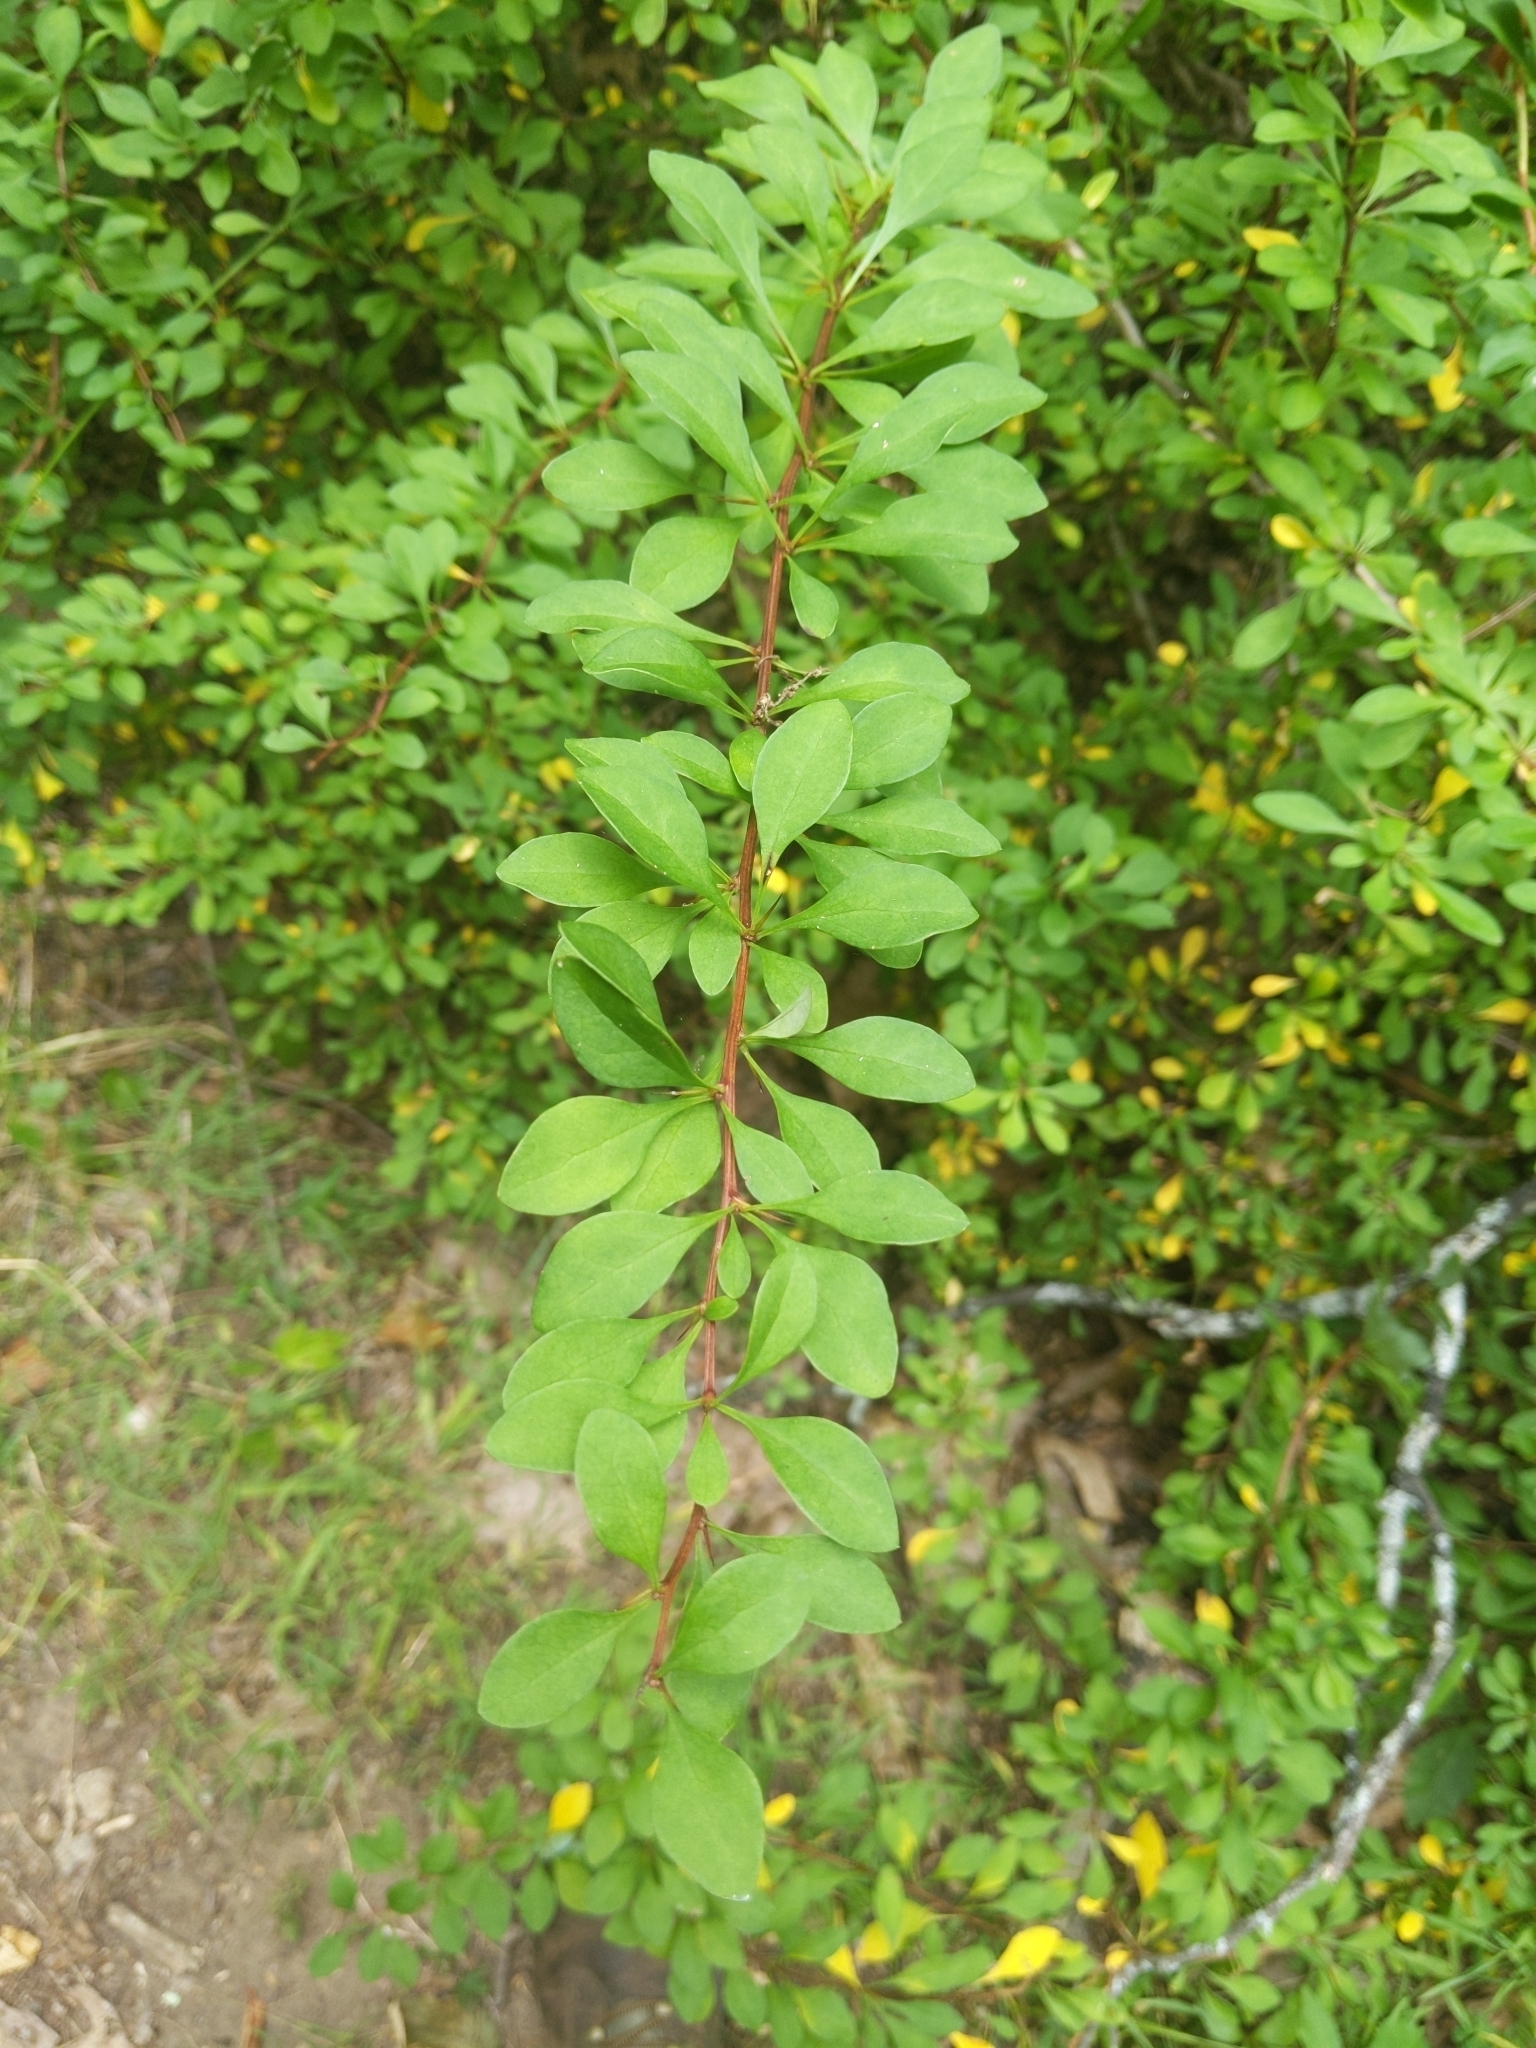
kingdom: Plantae
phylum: Tracheophyta
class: Magnoliopsida
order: Ranunculales
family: Berberidaceae
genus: Berberis
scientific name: Berberis thunbergii
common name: Japanese barberry
